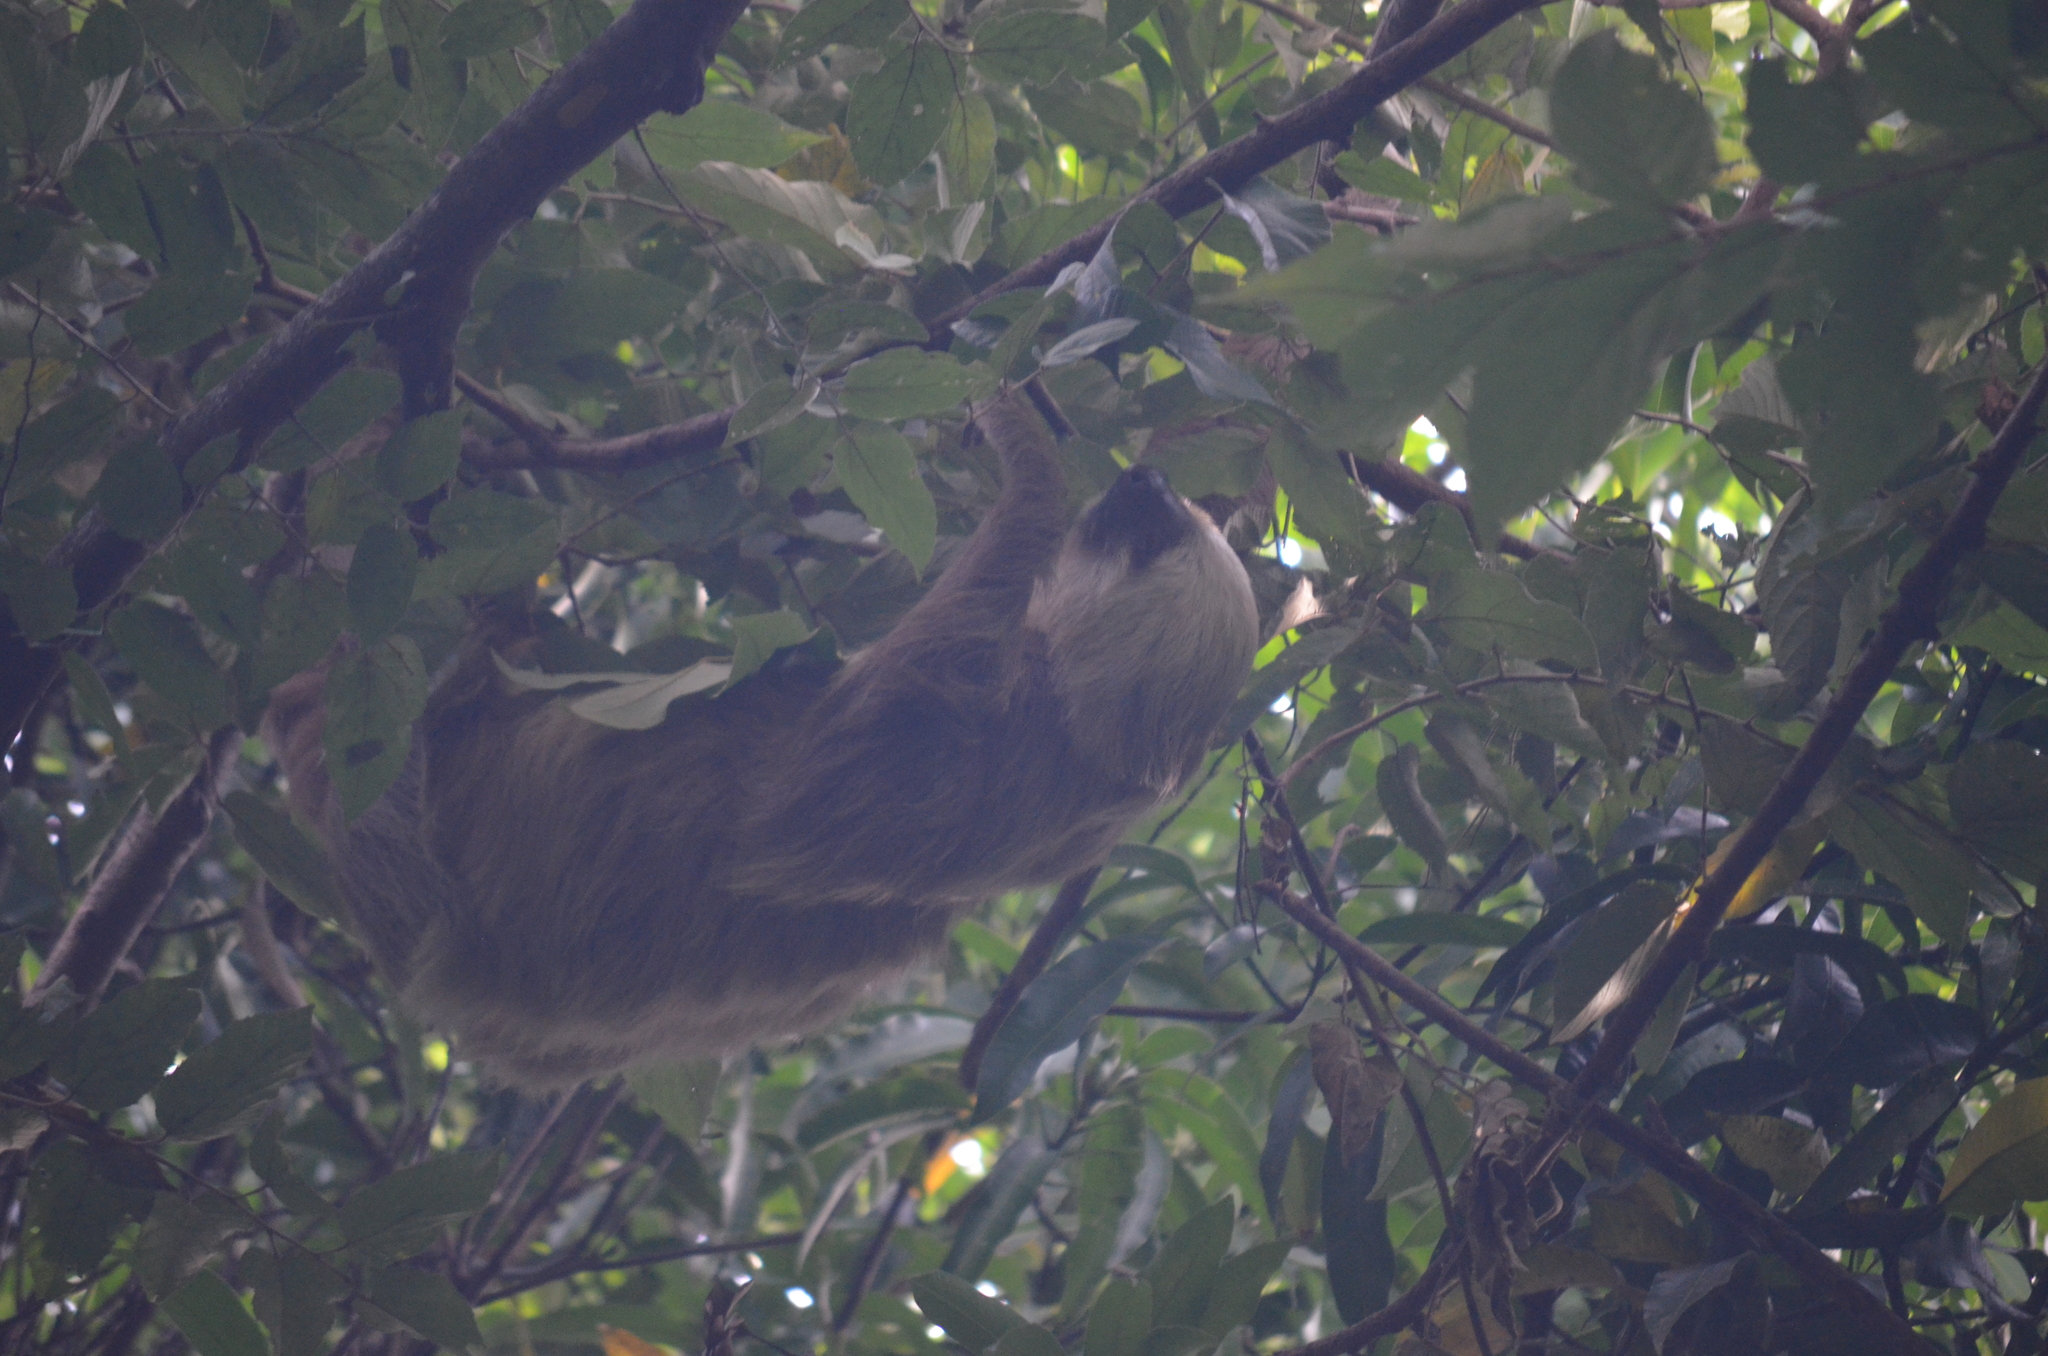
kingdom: Animalia
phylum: Chordata
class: Mammalia
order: Pilosa
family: Megalonychidae
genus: Choloepus
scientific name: Choloepus hoffmanni
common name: Hoffmann's two-toed sloth
